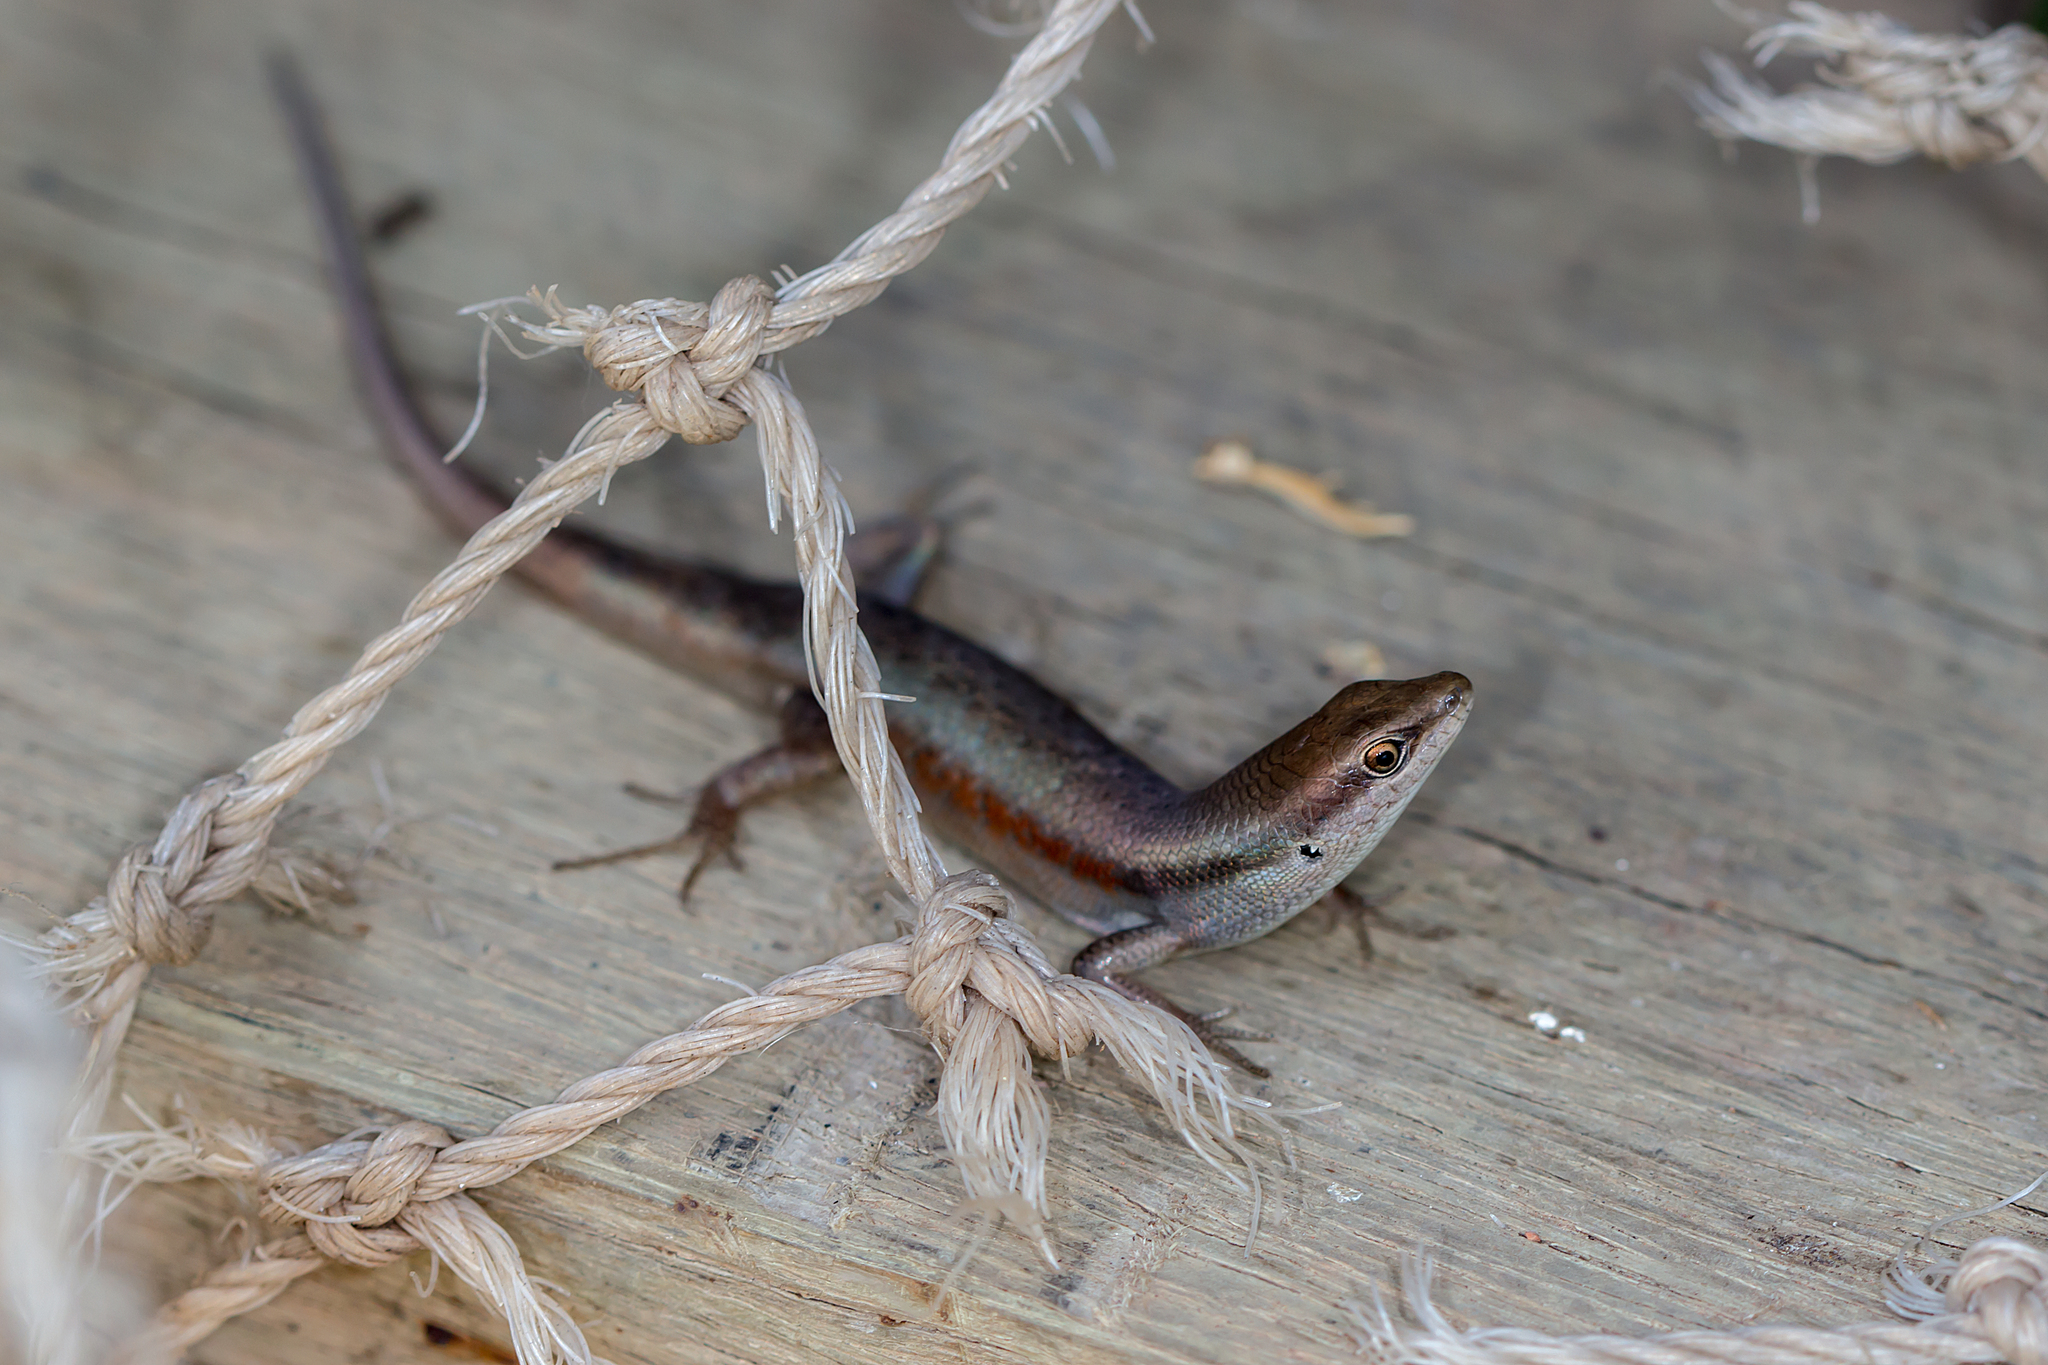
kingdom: Animalia
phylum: Chordata
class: Squamata
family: Scincidae
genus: Carlia
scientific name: Carlia sexdentata
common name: Closed-litter rainbow-skink
